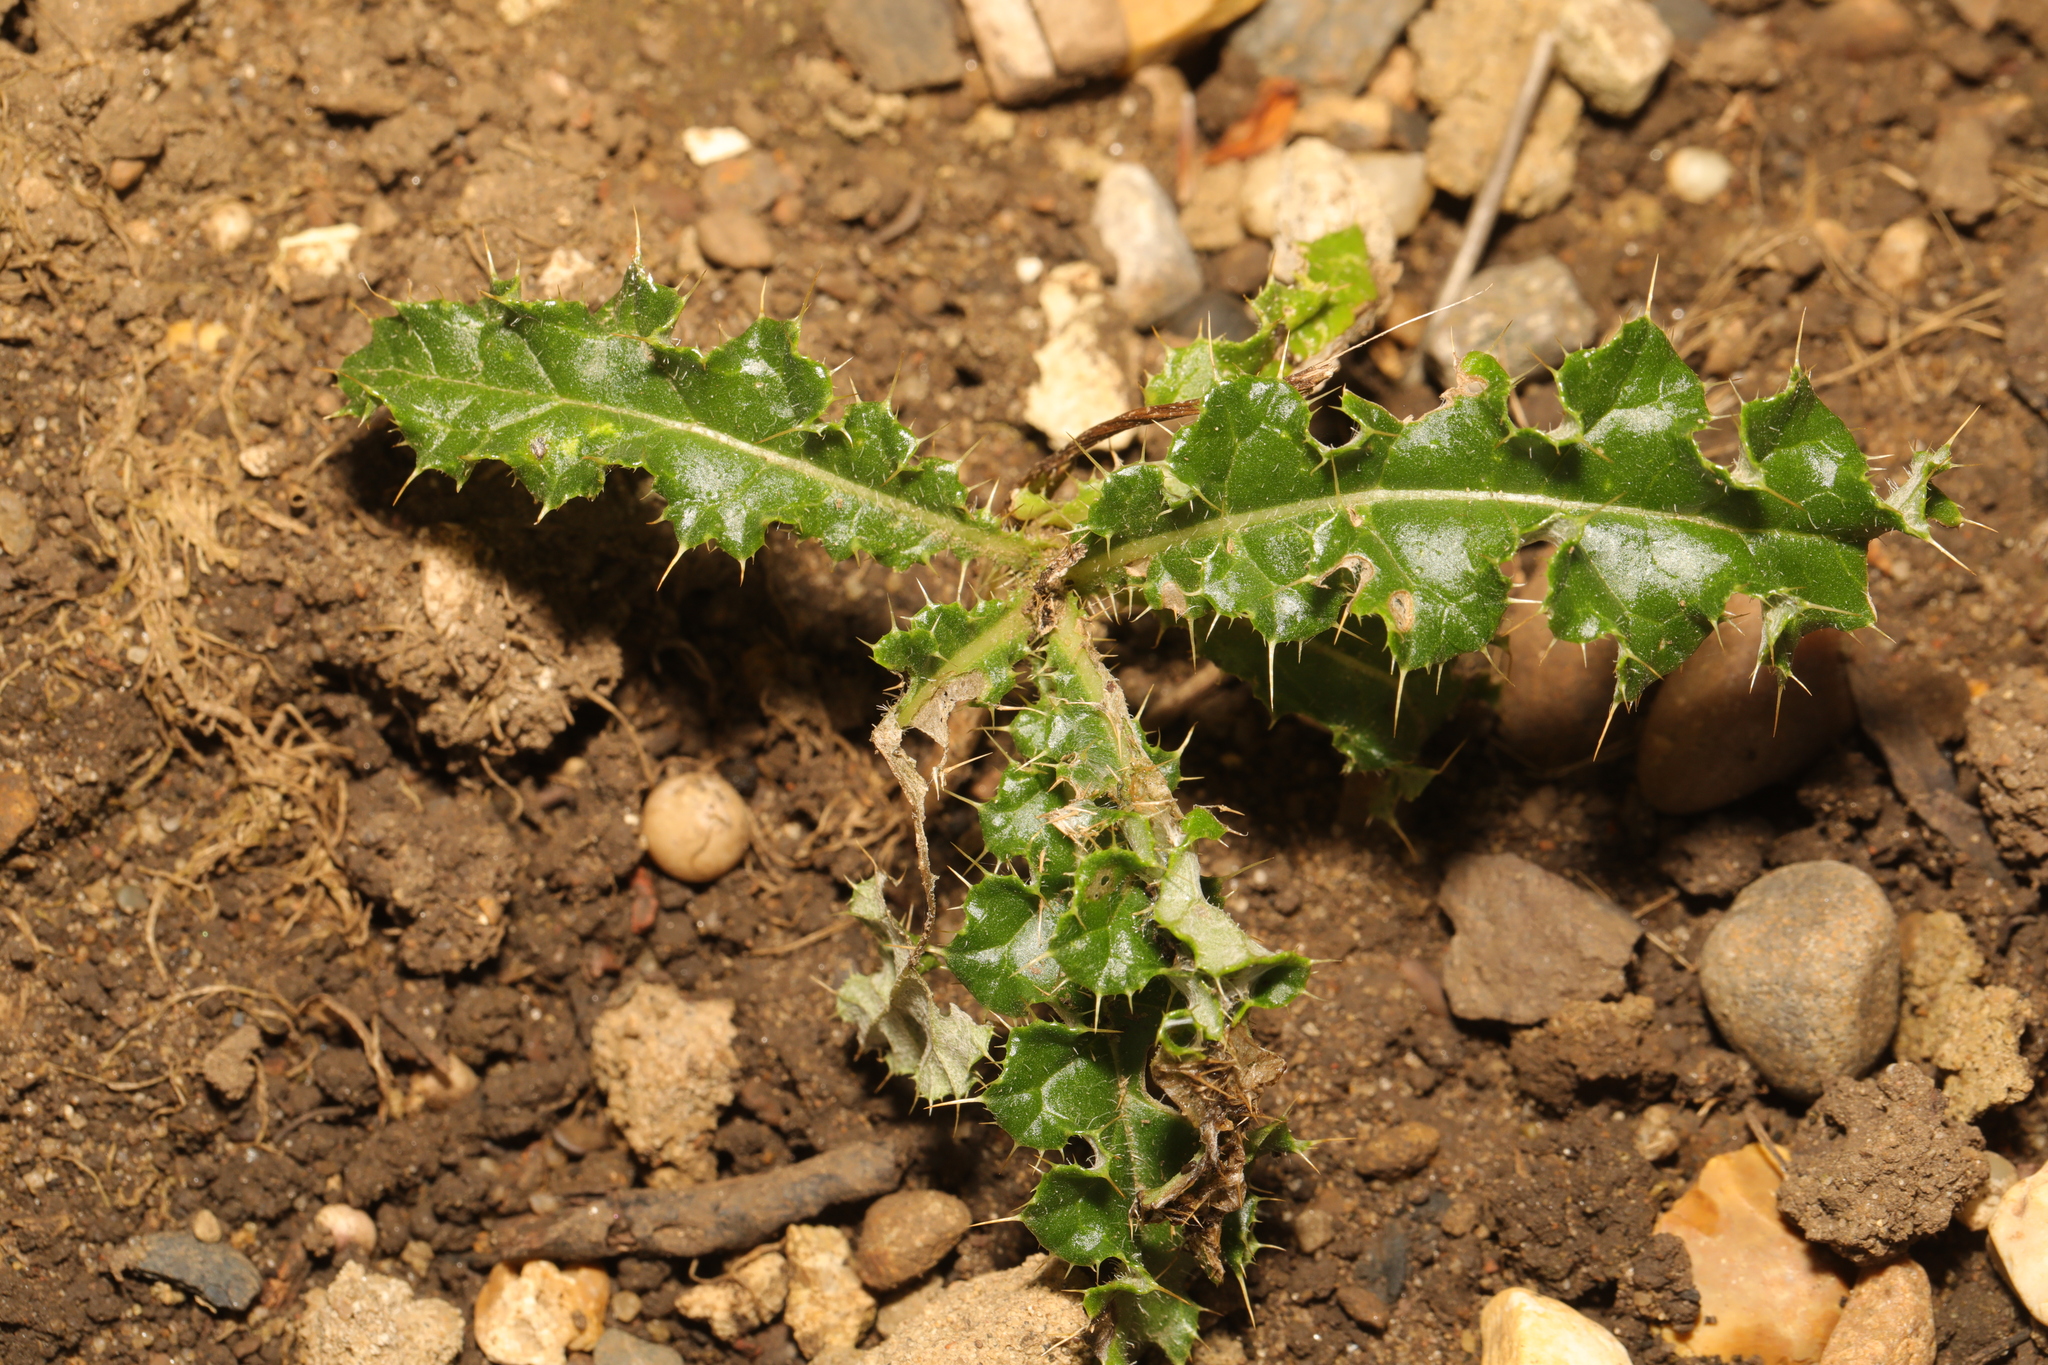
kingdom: Plantae
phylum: Tracheophyta
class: Magnoliopsida
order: Asterales
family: Asteraceae
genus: Cirsium
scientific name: Cirsium arvense
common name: Creeping thistle
